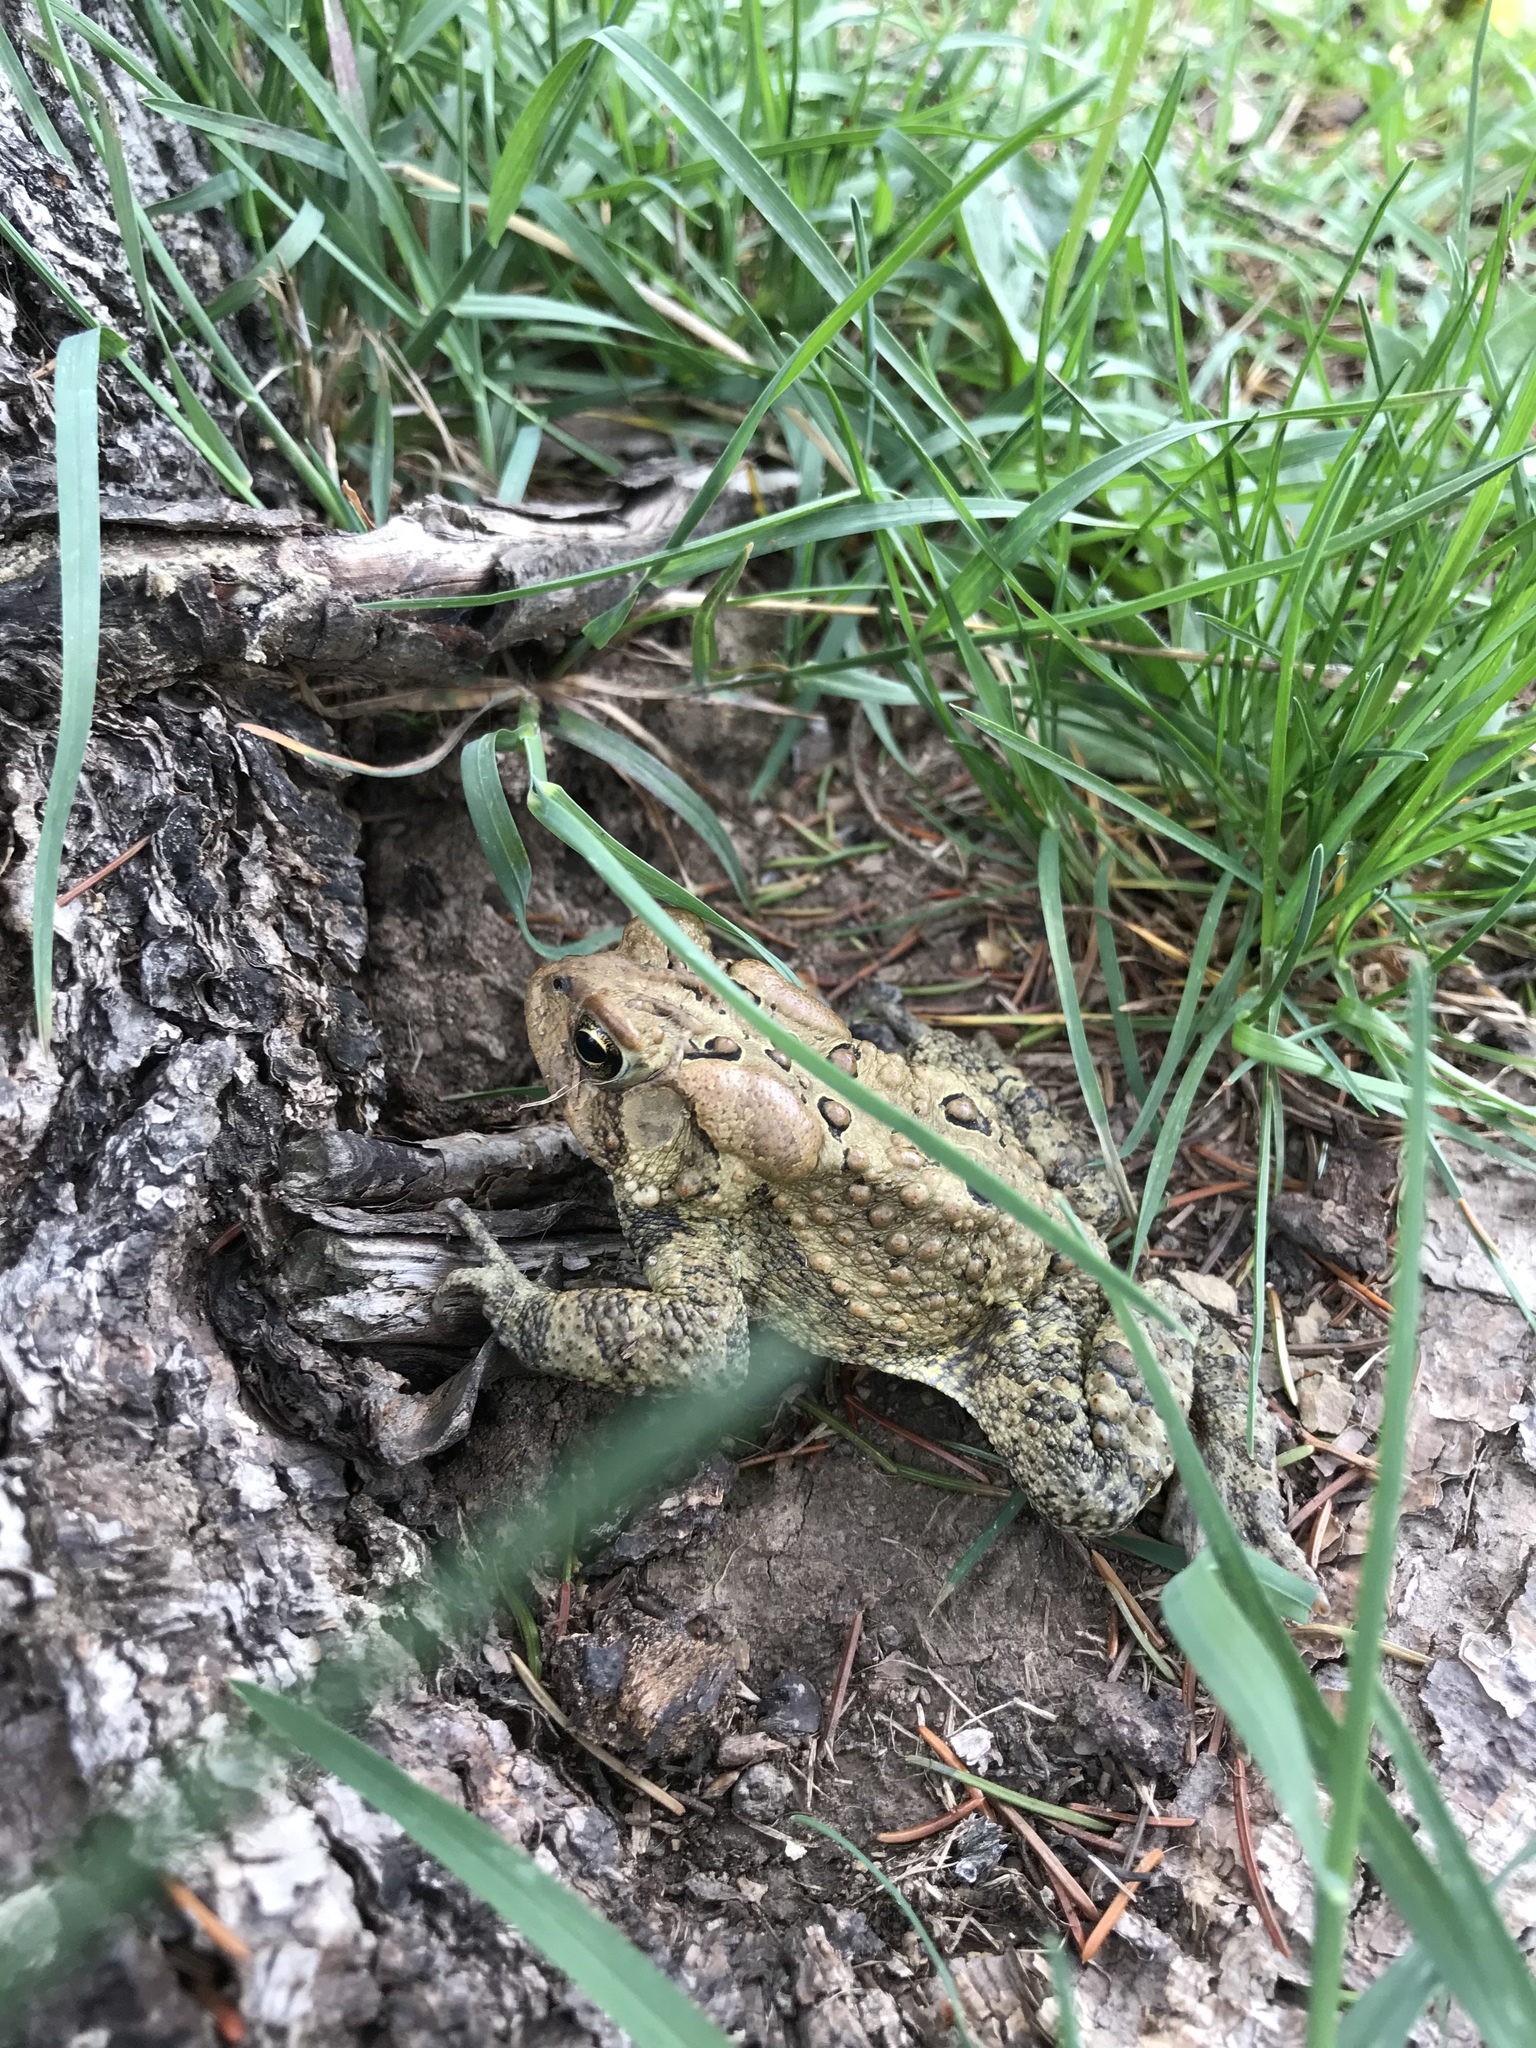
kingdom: Animalia
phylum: Chordata
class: Amphibia
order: Anura
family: Bufonidae
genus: Anaxyrus
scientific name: Anaxyrus americanus
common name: American toad
